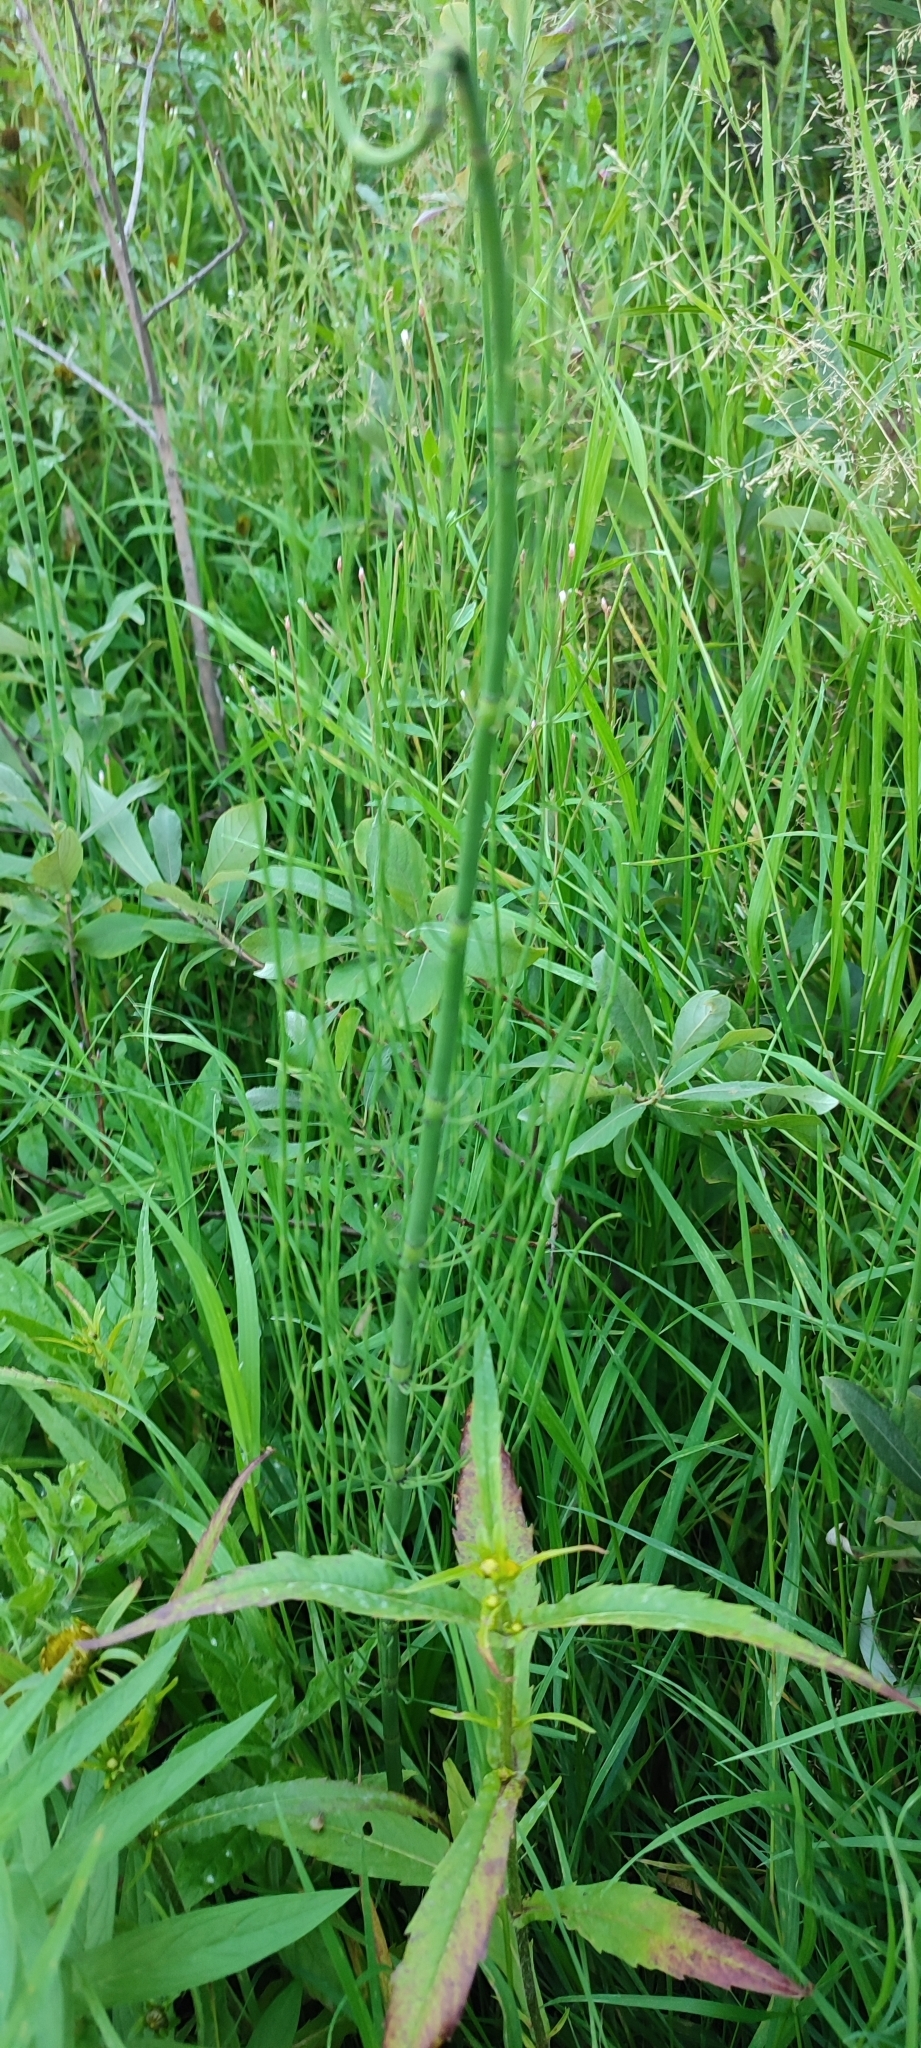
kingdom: Plantae
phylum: Tracheophyta
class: Polypodiopsida
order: Equisetales
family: Equisetaceae
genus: Equisetum
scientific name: Equisetum fluviatile
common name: Water horsetail
